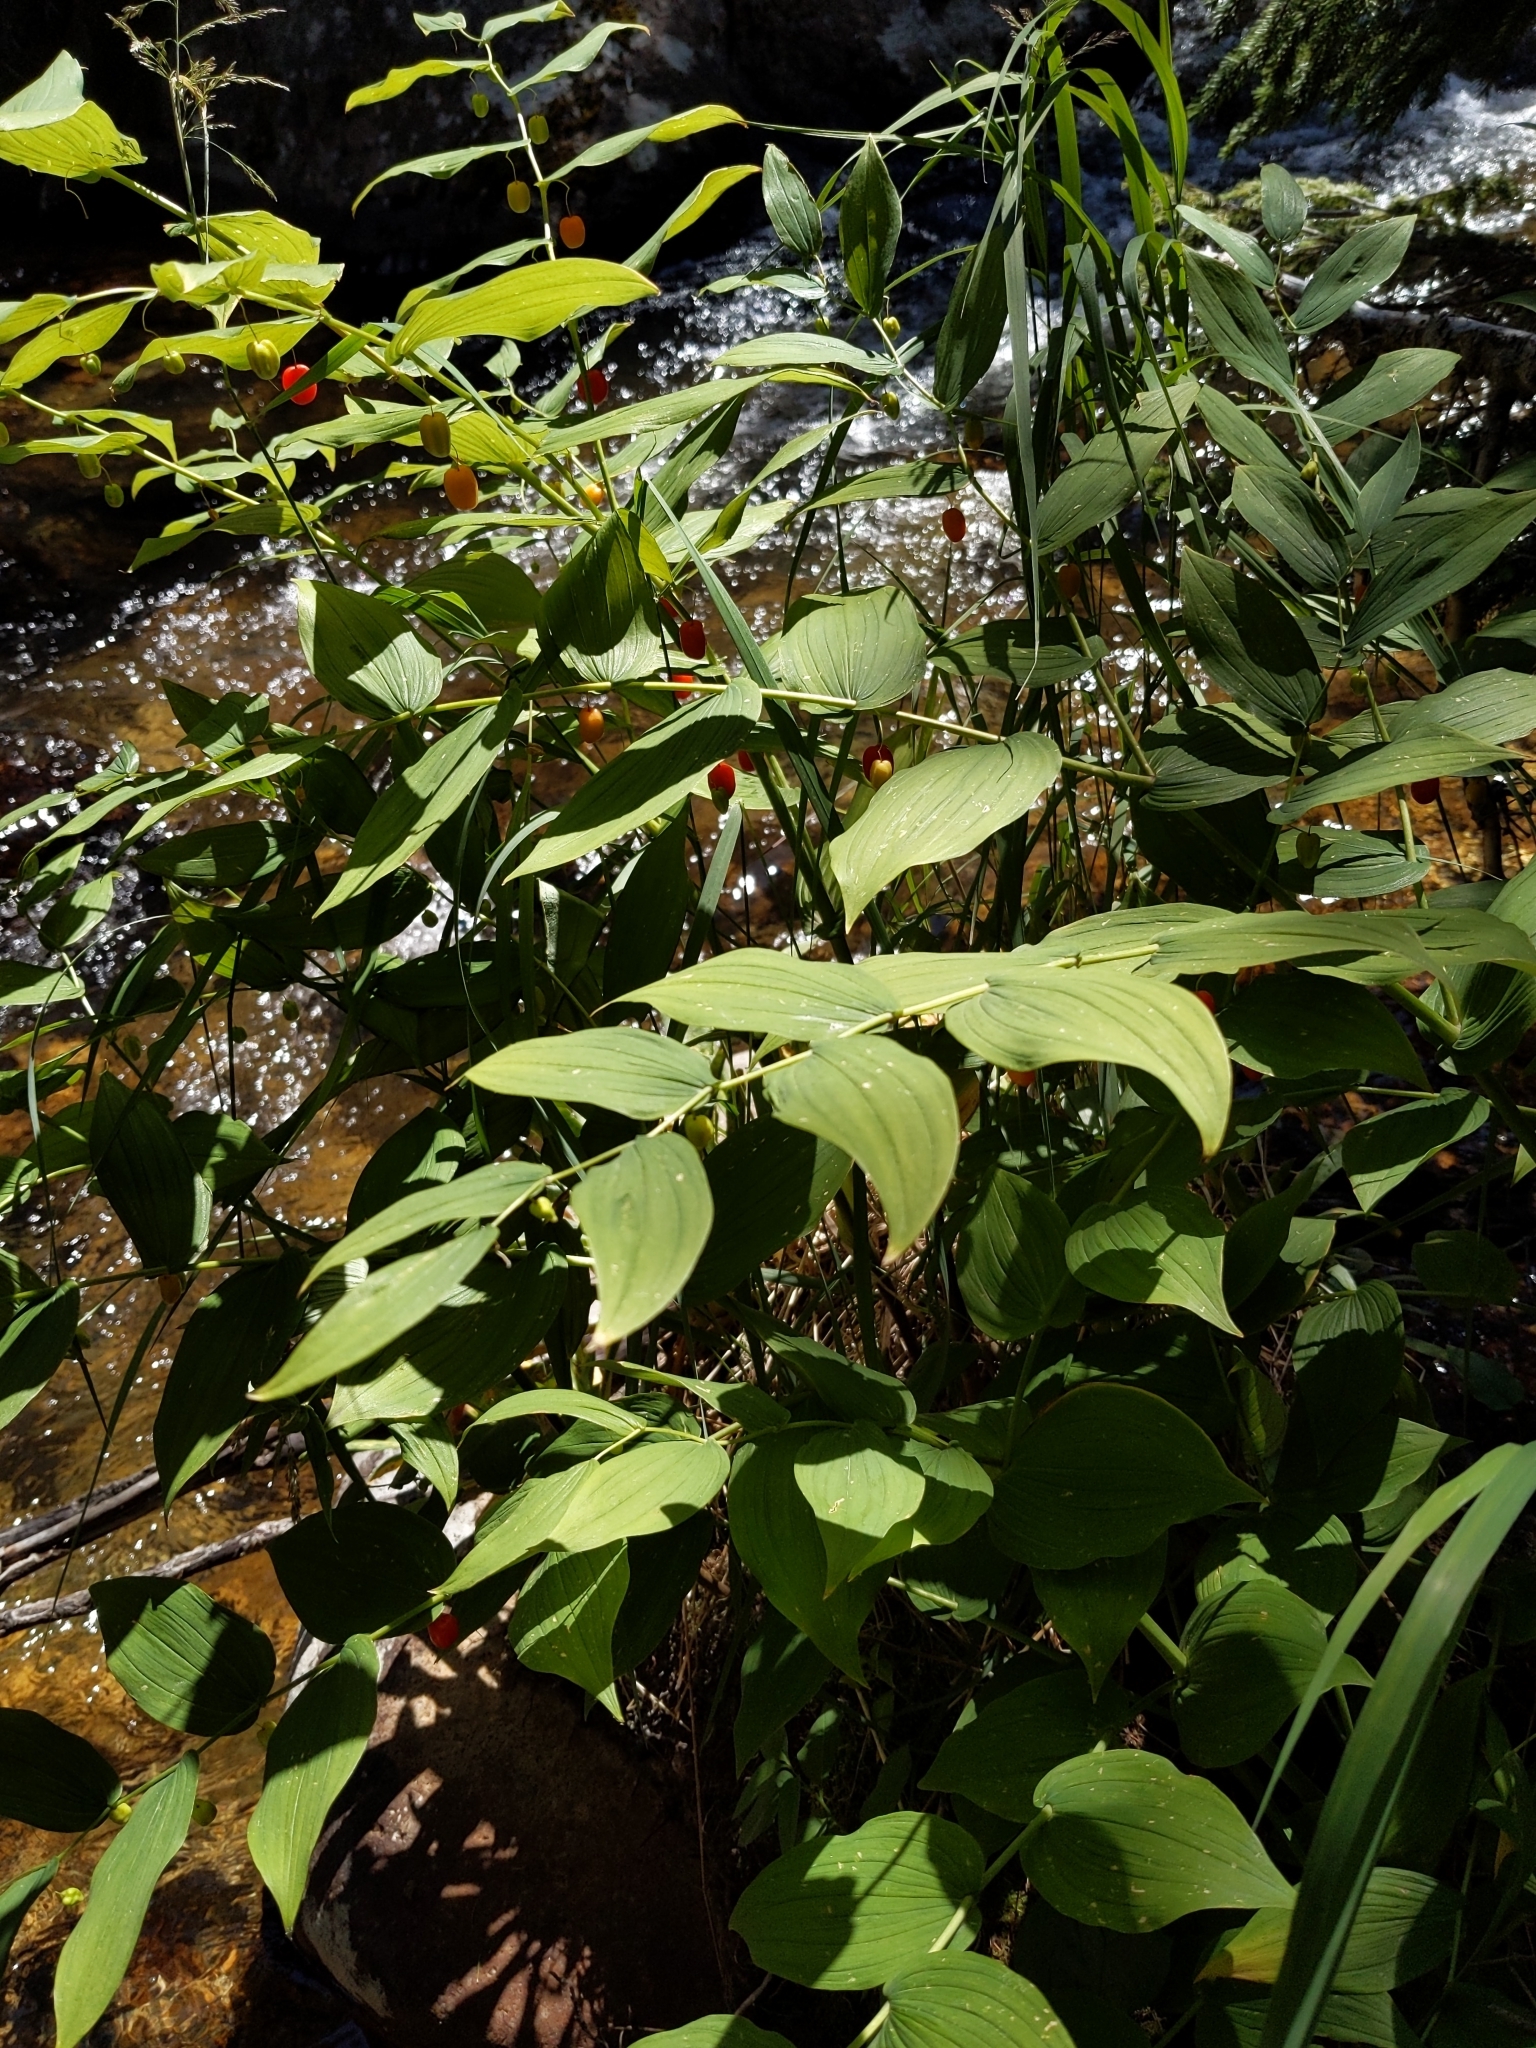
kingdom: Plantae
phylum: Tracheophyta
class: Liliopsida
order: Liliales
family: Liliaceae
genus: Streptopus
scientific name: Streptopus amplexifolius
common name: Clasp twisted stalk
